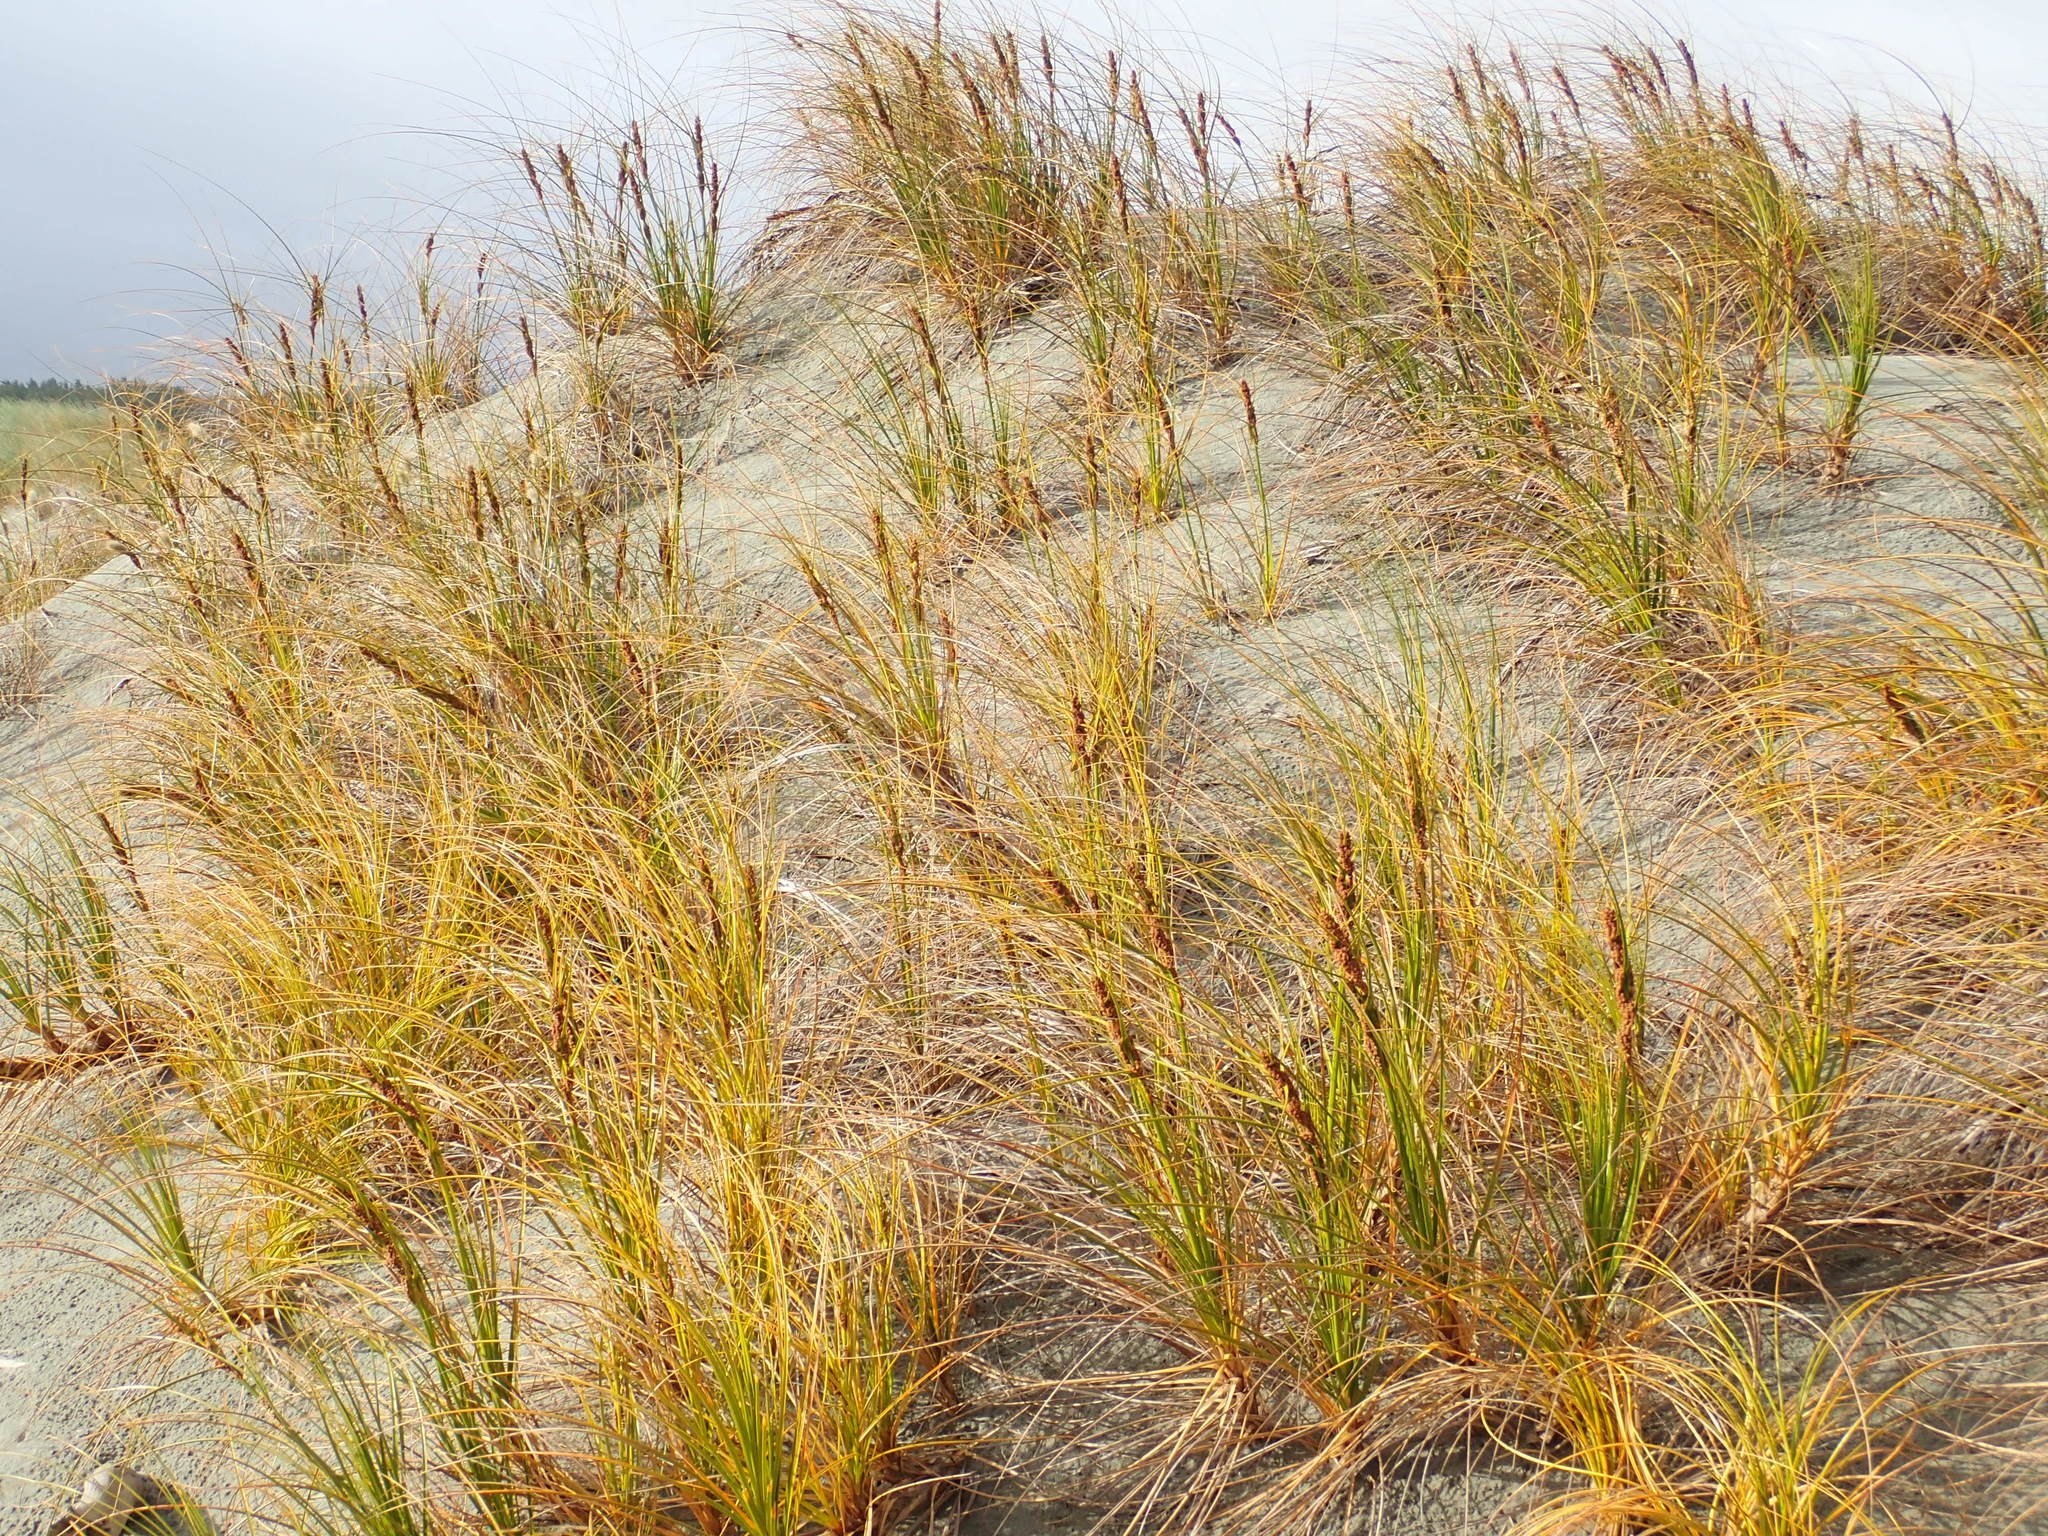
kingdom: Plantae
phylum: Tracheophyta
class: Liliopsida
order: Poales
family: Cyperaceae
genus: Ficinia
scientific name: Ficinia spiralis
